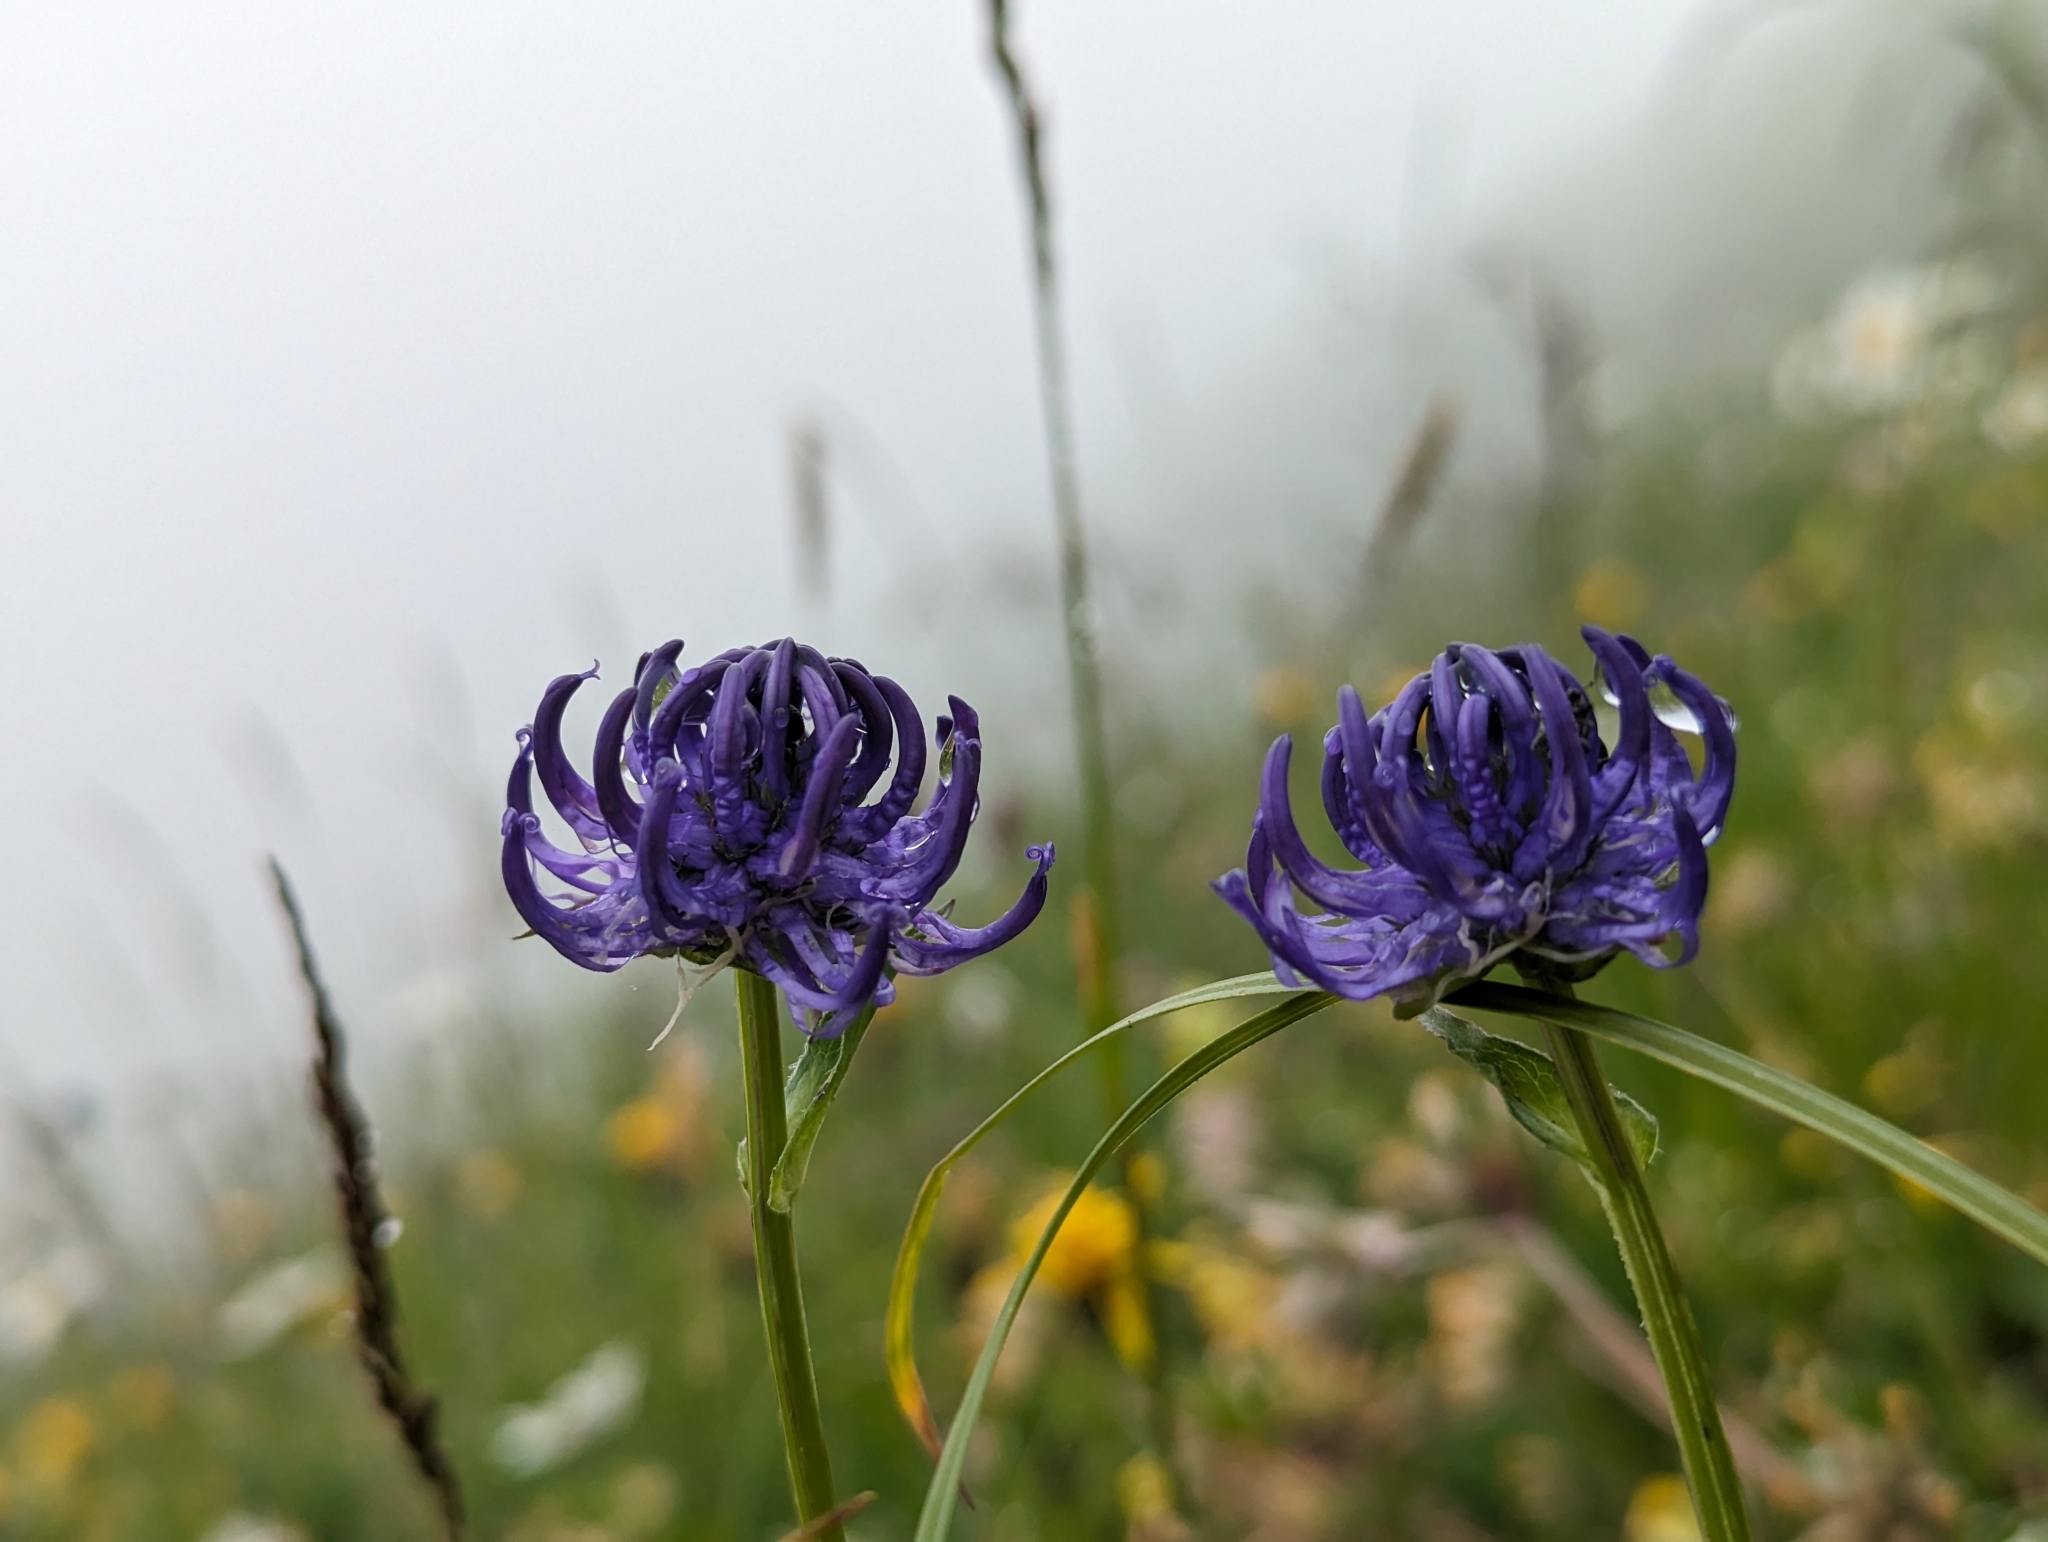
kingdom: Plantae
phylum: Tracheophyta
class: Magnoliopsida
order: Asterales
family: Campanulaceae
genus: Phyteuma
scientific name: Phyteuma orbiculare
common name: Round-headed rampion
